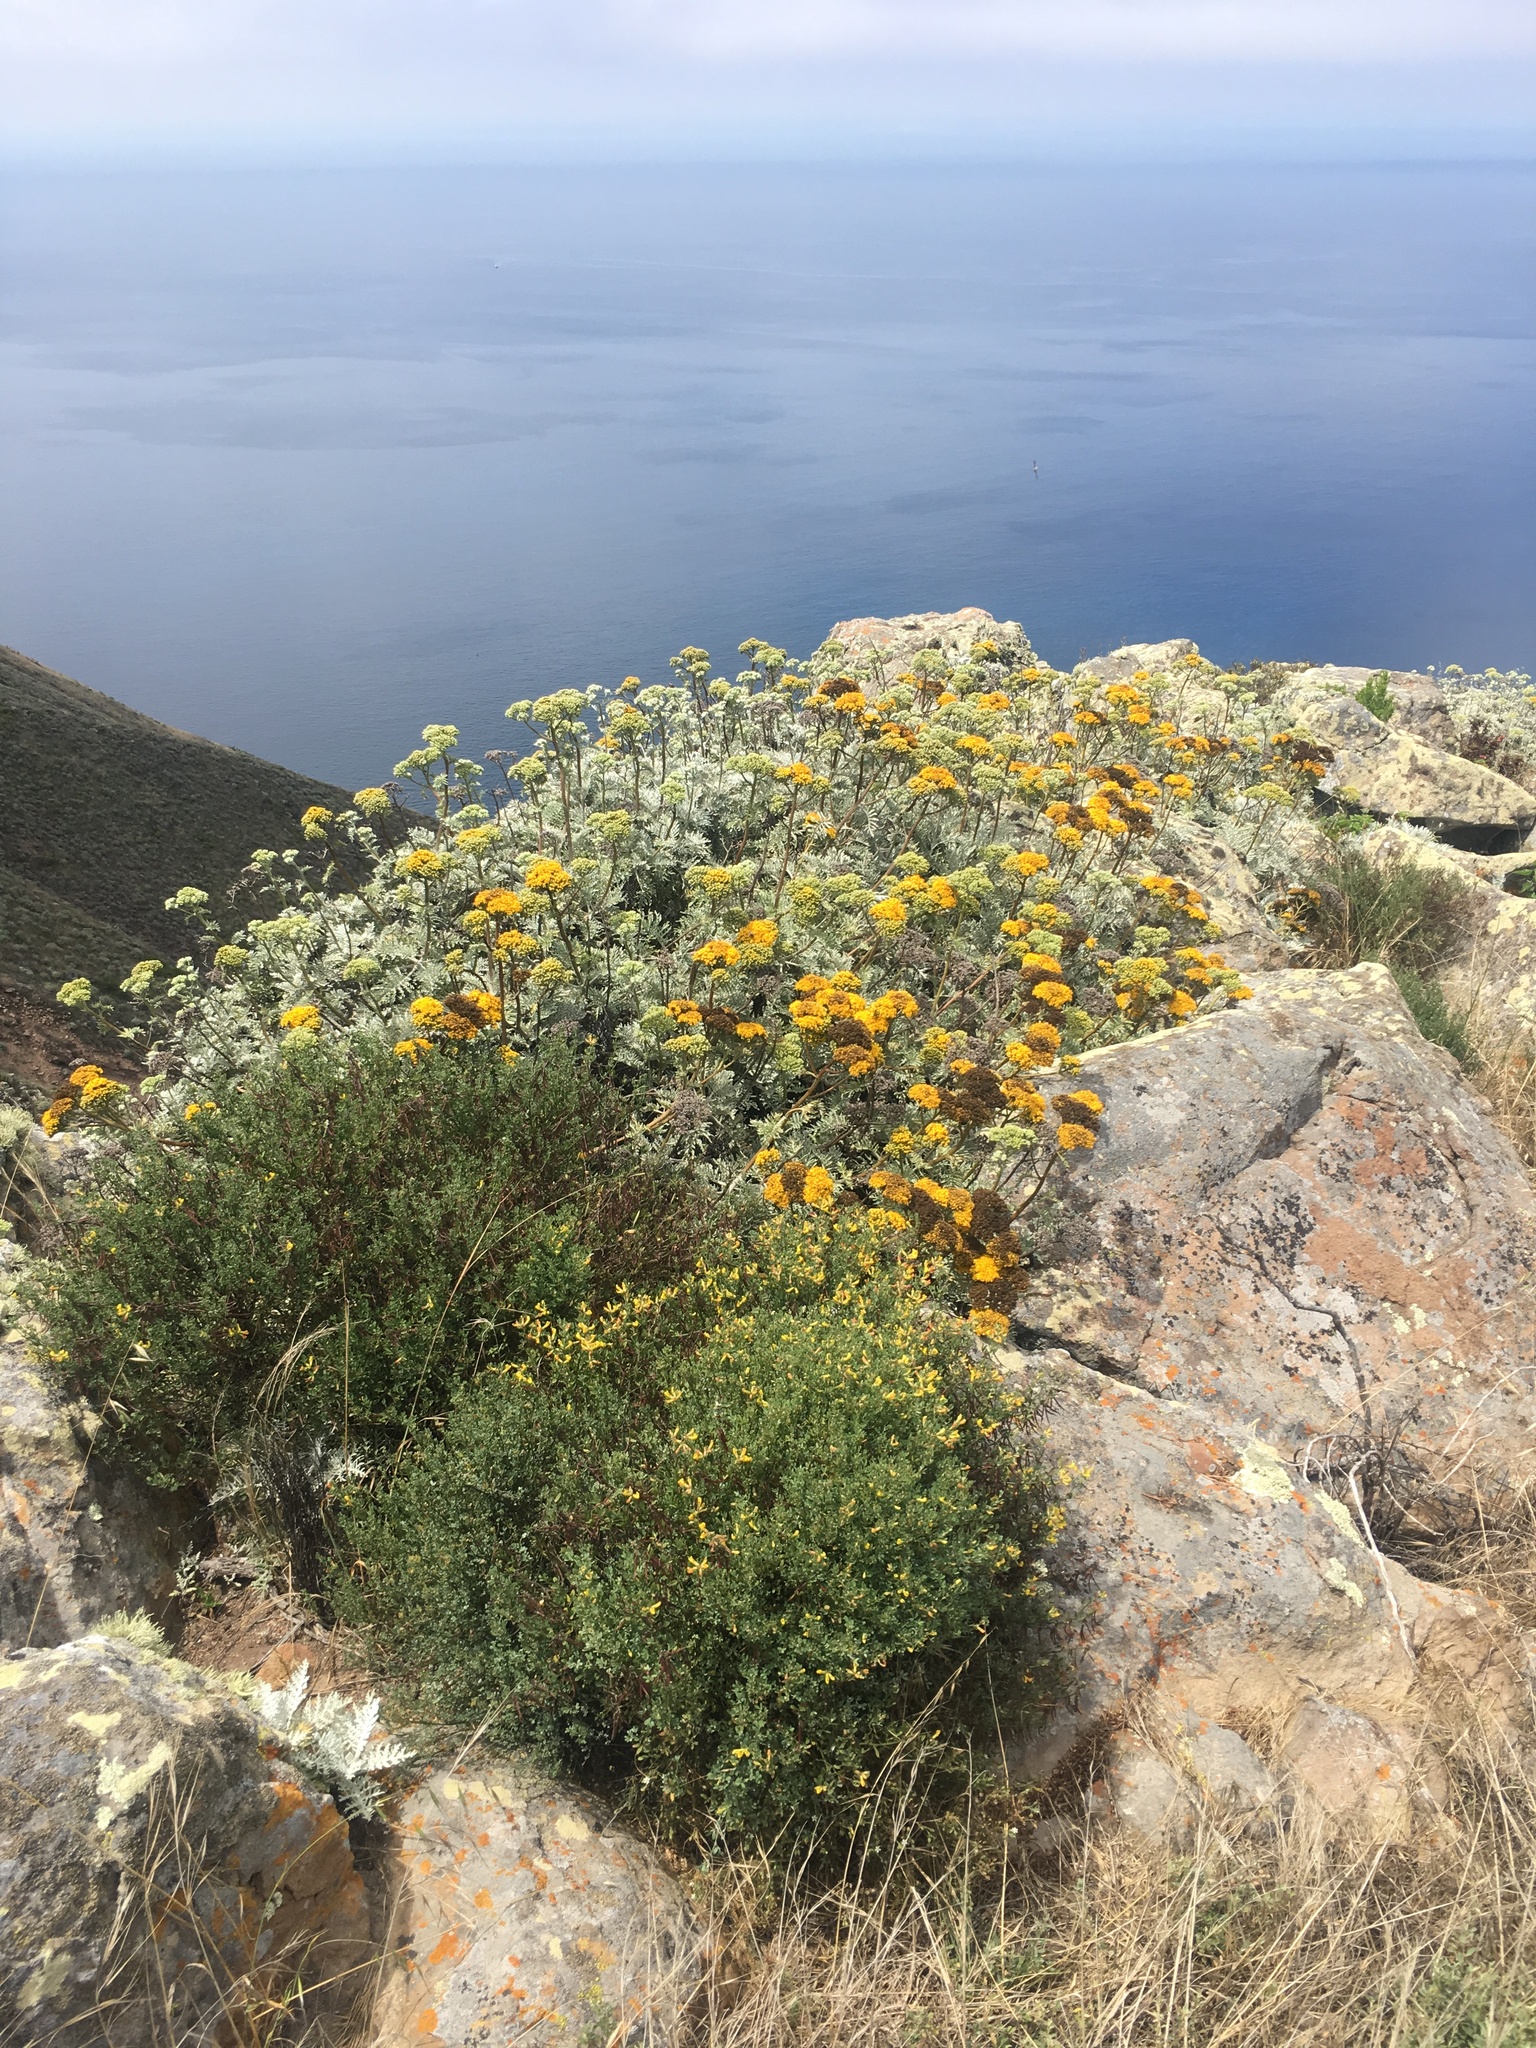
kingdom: Plantae
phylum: Tracheophyta
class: Magnoliopsida
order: Fabales
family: Fabaceae
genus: Acmispon
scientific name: Acmispon dendroideus
